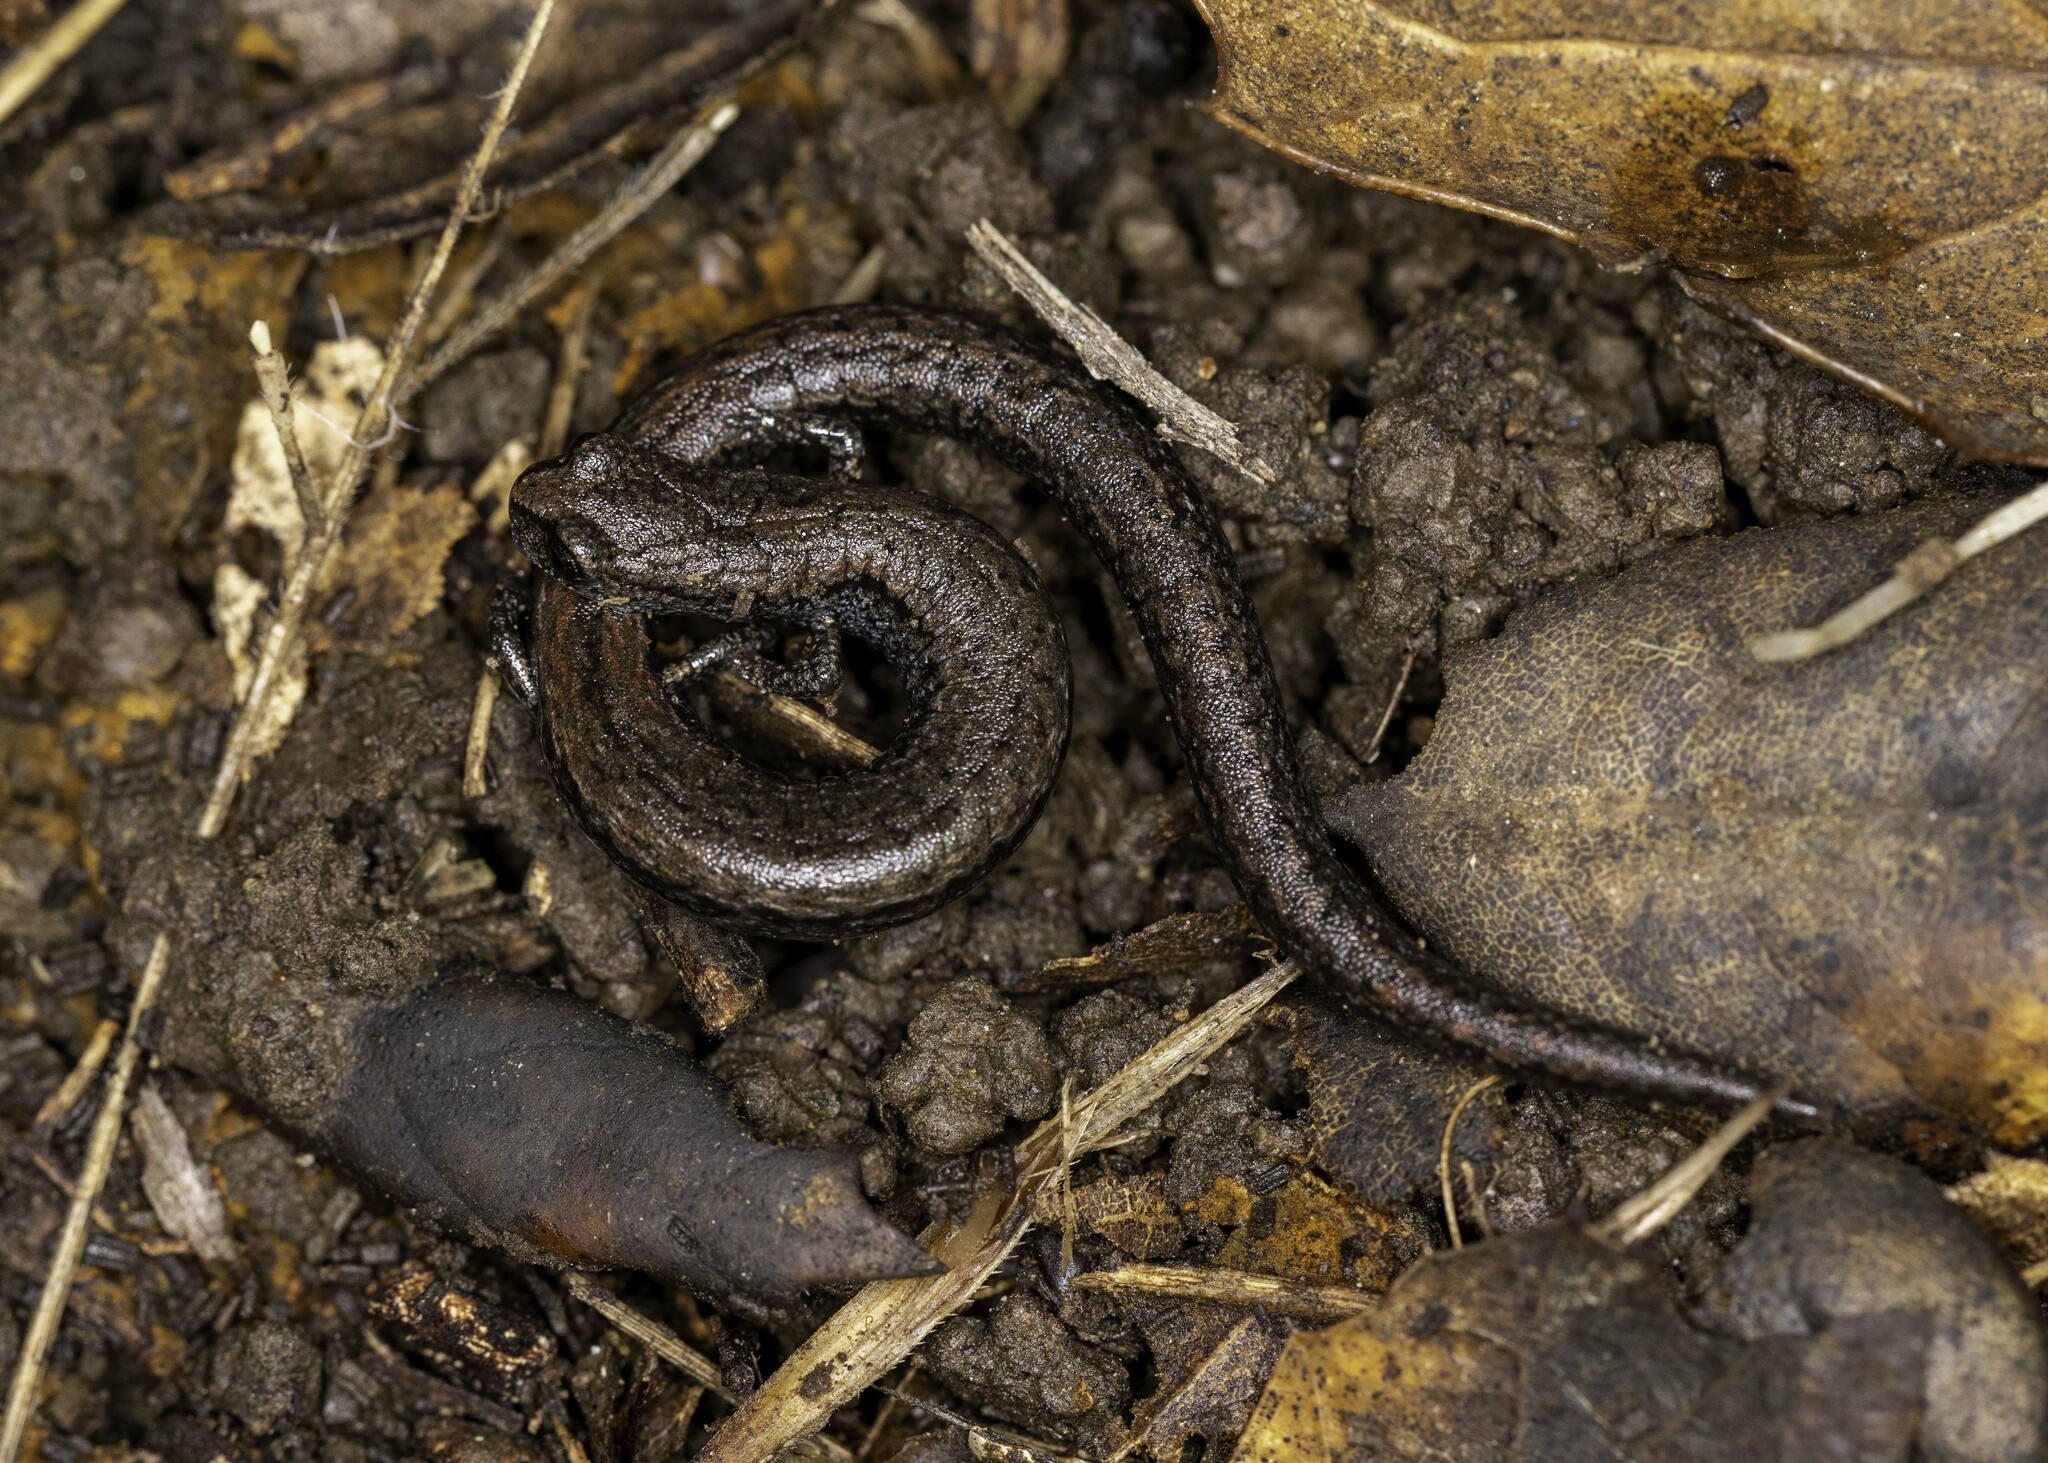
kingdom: Animalia
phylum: Chordata
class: Amphibia
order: Caudata
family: Plethodontidae
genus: Batrachoseps
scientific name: Batrachoseps nigriventris
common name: Black-bellied slender salamander
